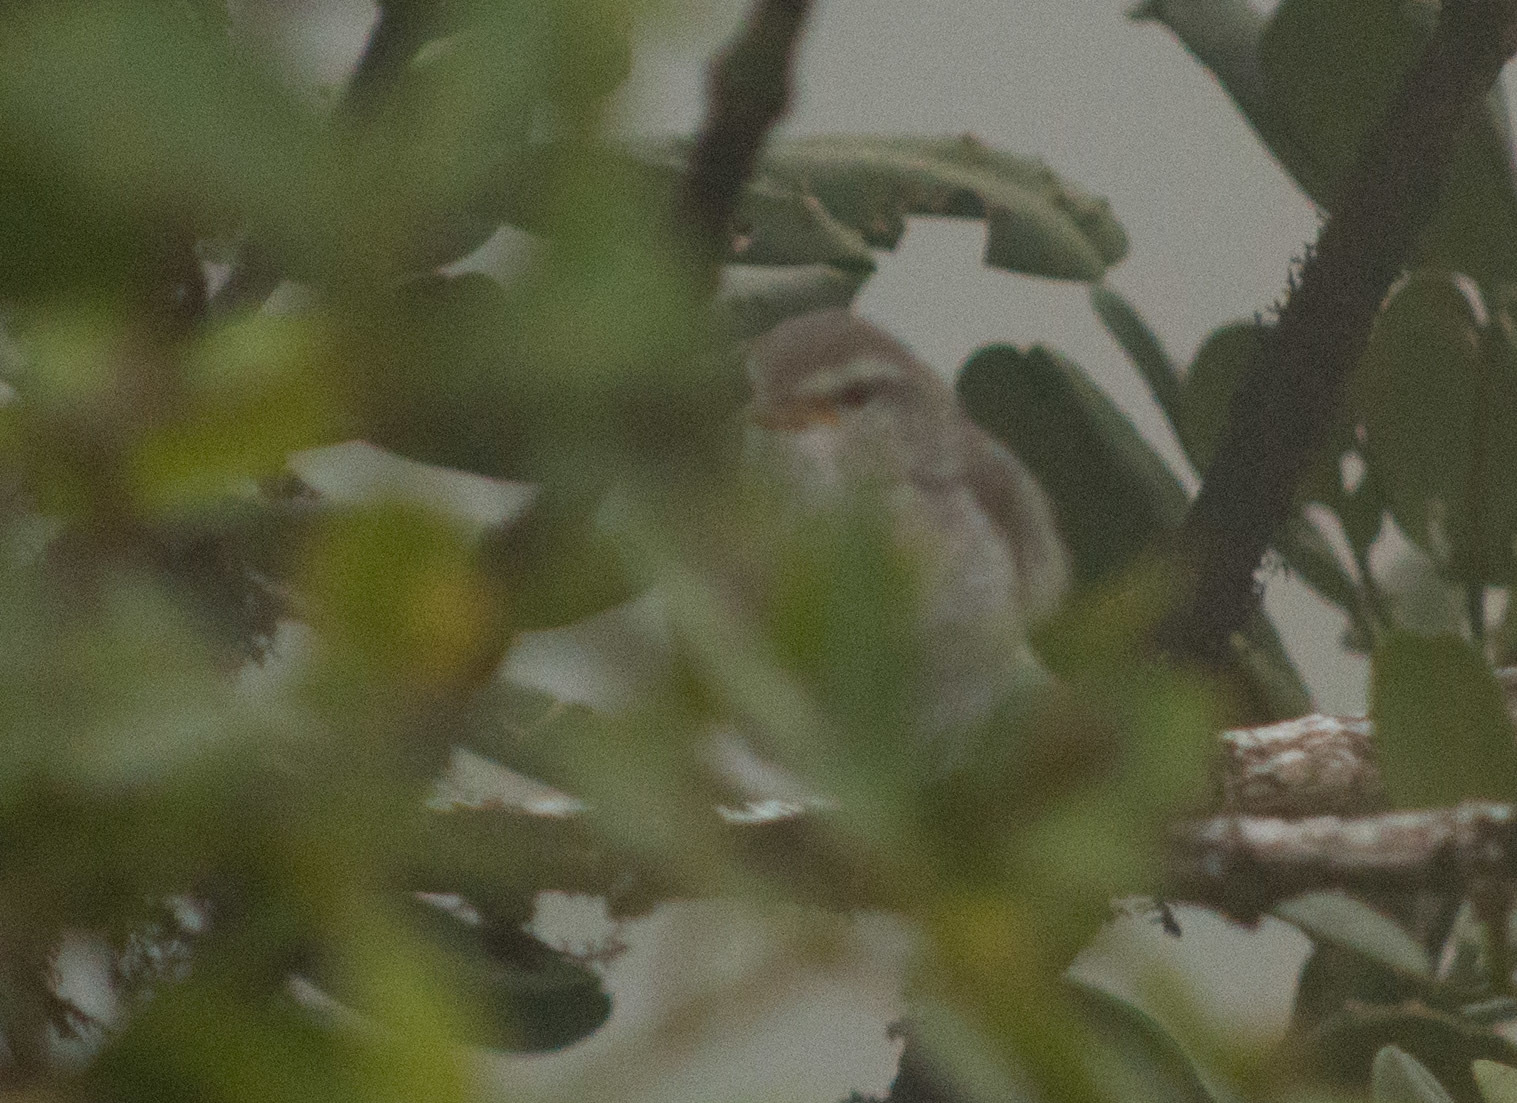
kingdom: Animalia
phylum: Chordata
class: Aves
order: Passeriformes
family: Cettiidae
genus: Horornis
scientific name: Horornis diphone
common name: Japanese bush warbler
